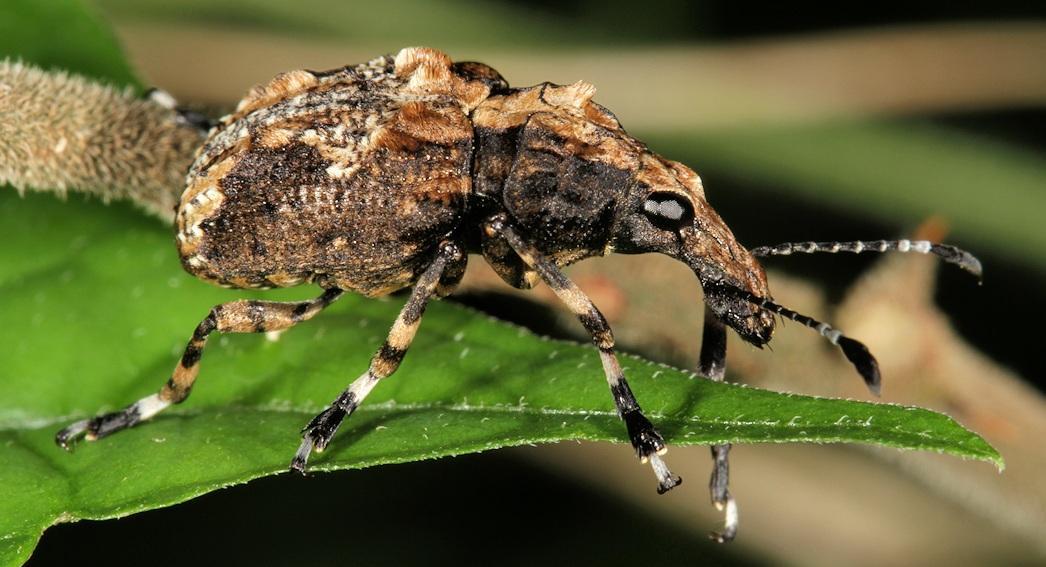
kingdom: Animalia
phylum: Arthropoda
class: Insecta
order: Coleoptera
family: Anthribidae
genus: Physopterus
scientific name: Physopterus melanoleucus
